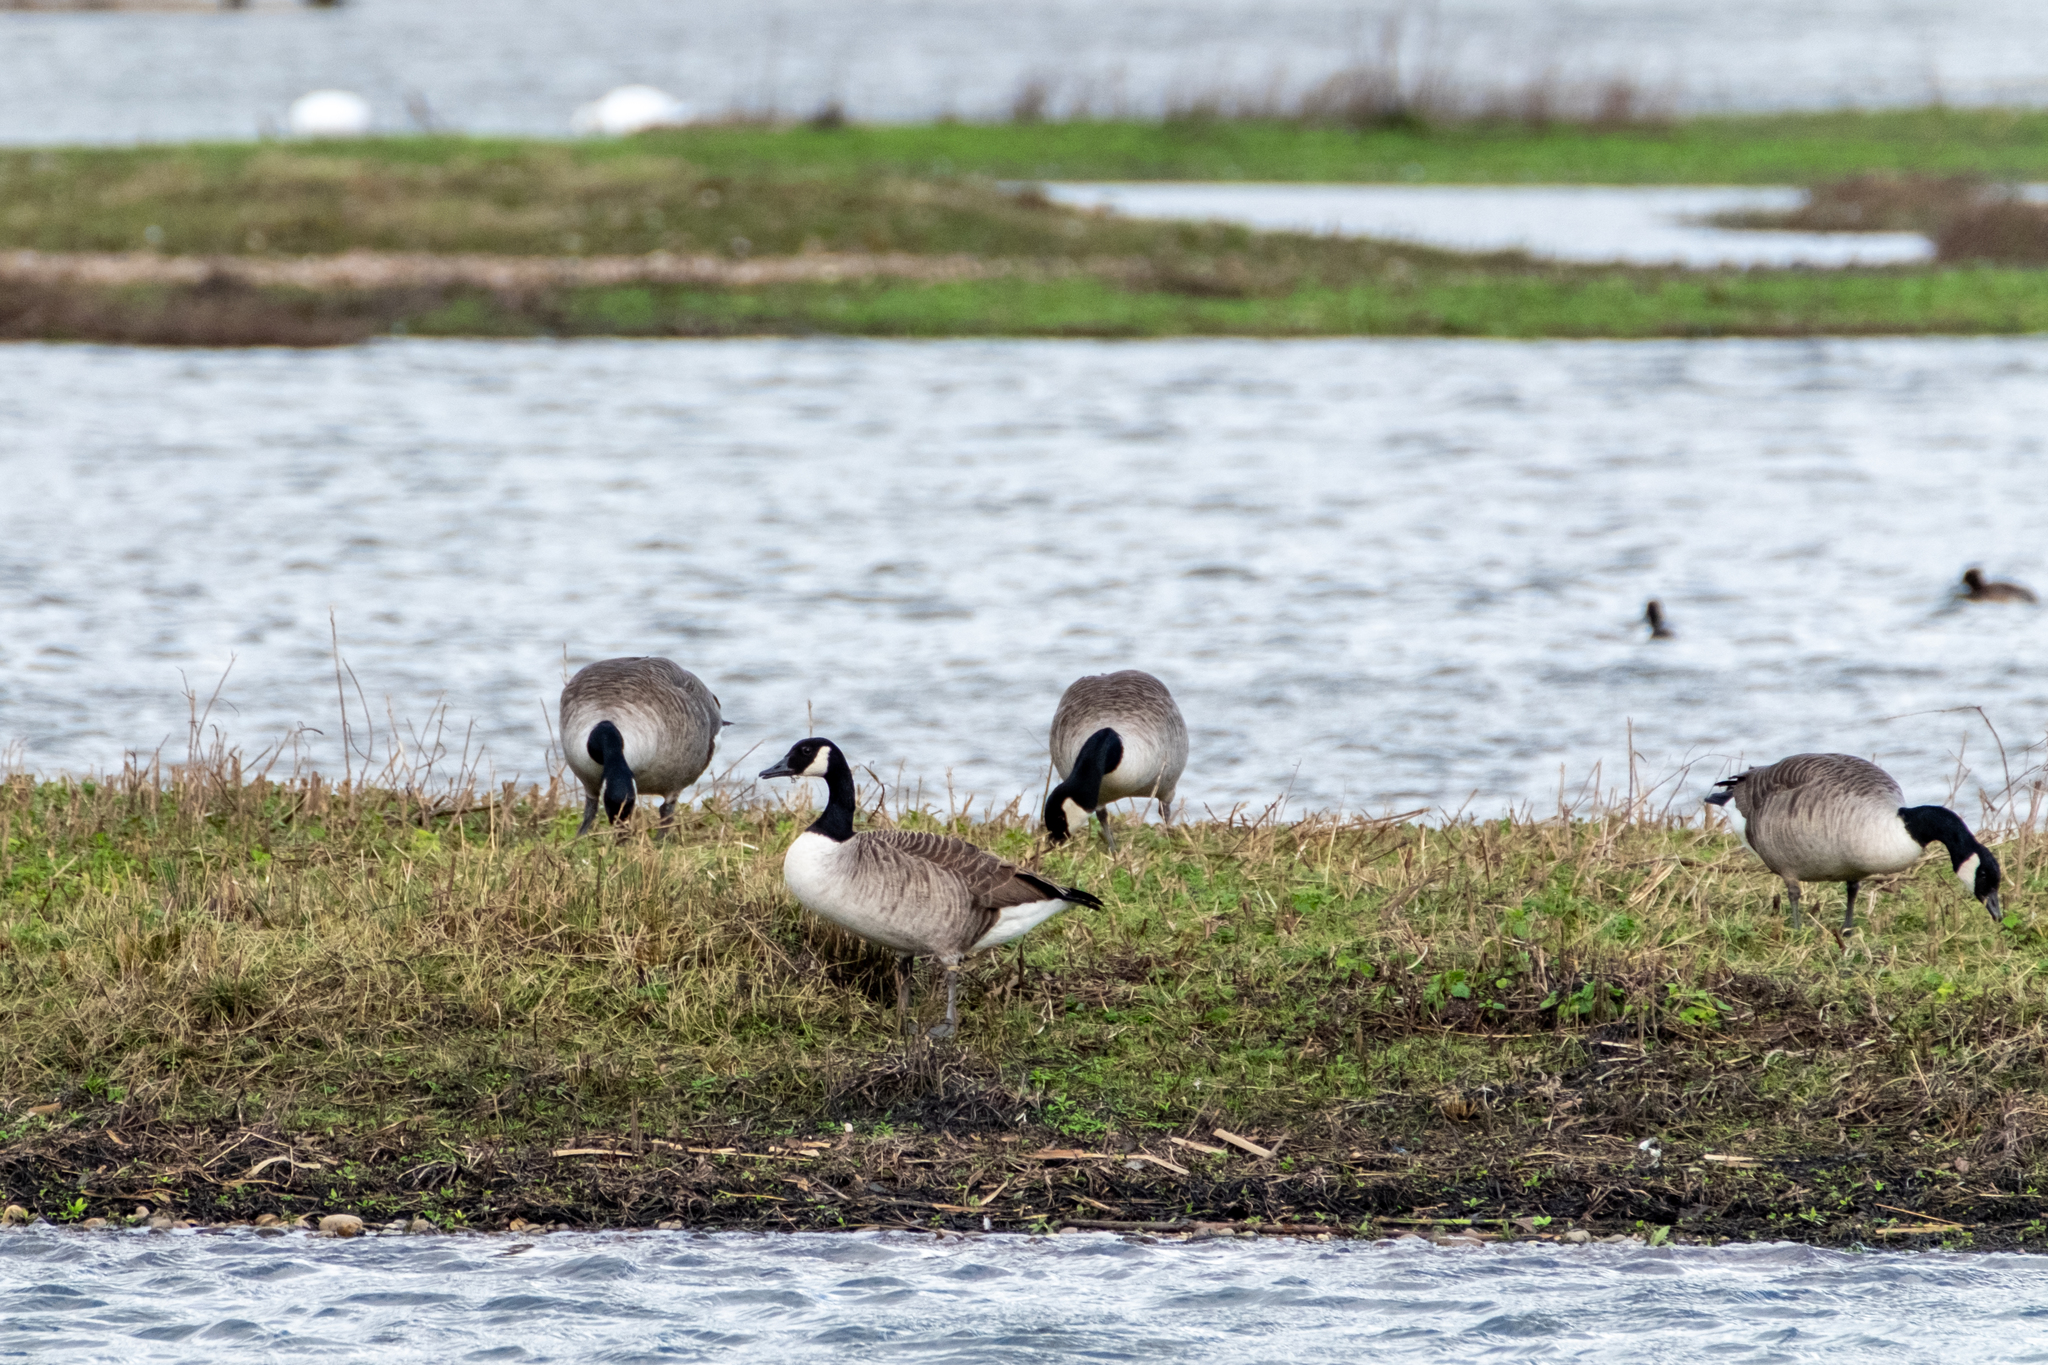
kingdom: Animalia
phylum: Chordata
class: Aves
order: Anseriformes
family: Anatidae
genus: Branta
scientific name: Branta canadensis
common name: Canada goose
